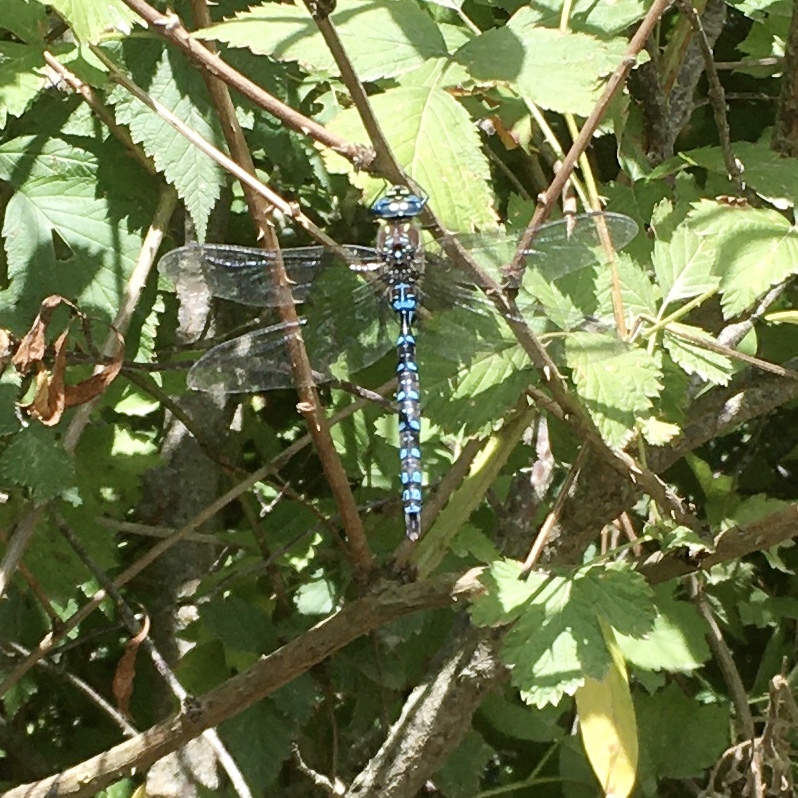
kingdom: Animalia
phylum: Arthropoda
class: Insecta
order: Odonata
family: Aeshnidae
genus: Aeshna
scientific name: Aeshna palmata
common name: Paddle-tailed darner
